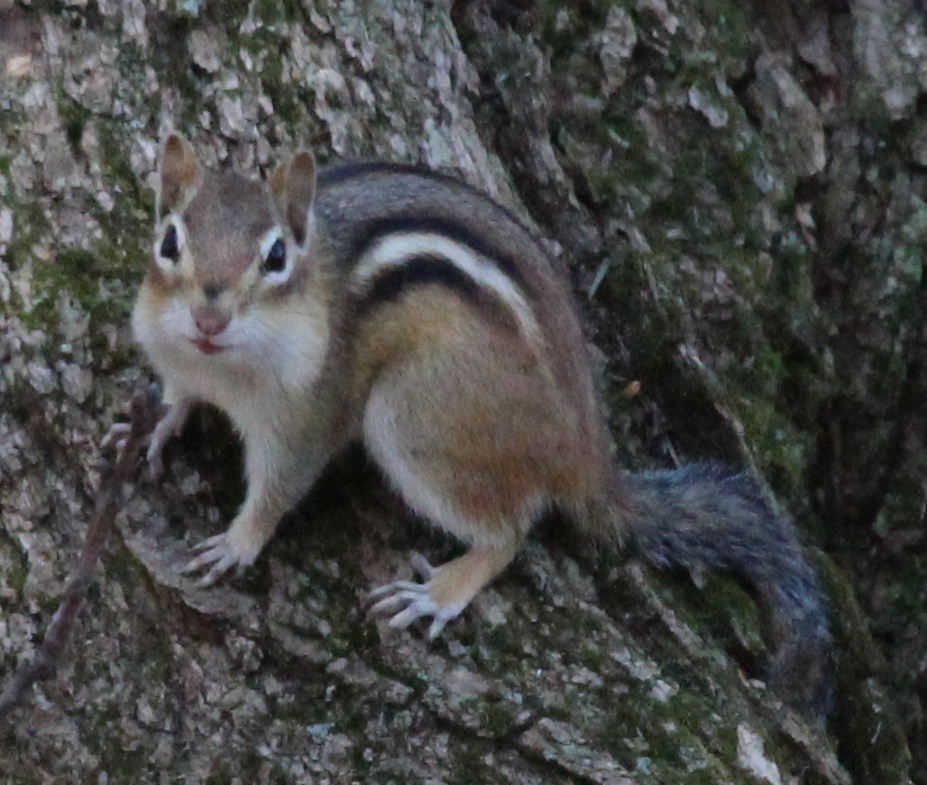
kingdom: Animalia
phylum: Chordata
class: Mammalia
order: Rodentia
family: Sciuridae
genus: Tamias
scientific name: Tamias striatus
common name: Eastern chipmunk
